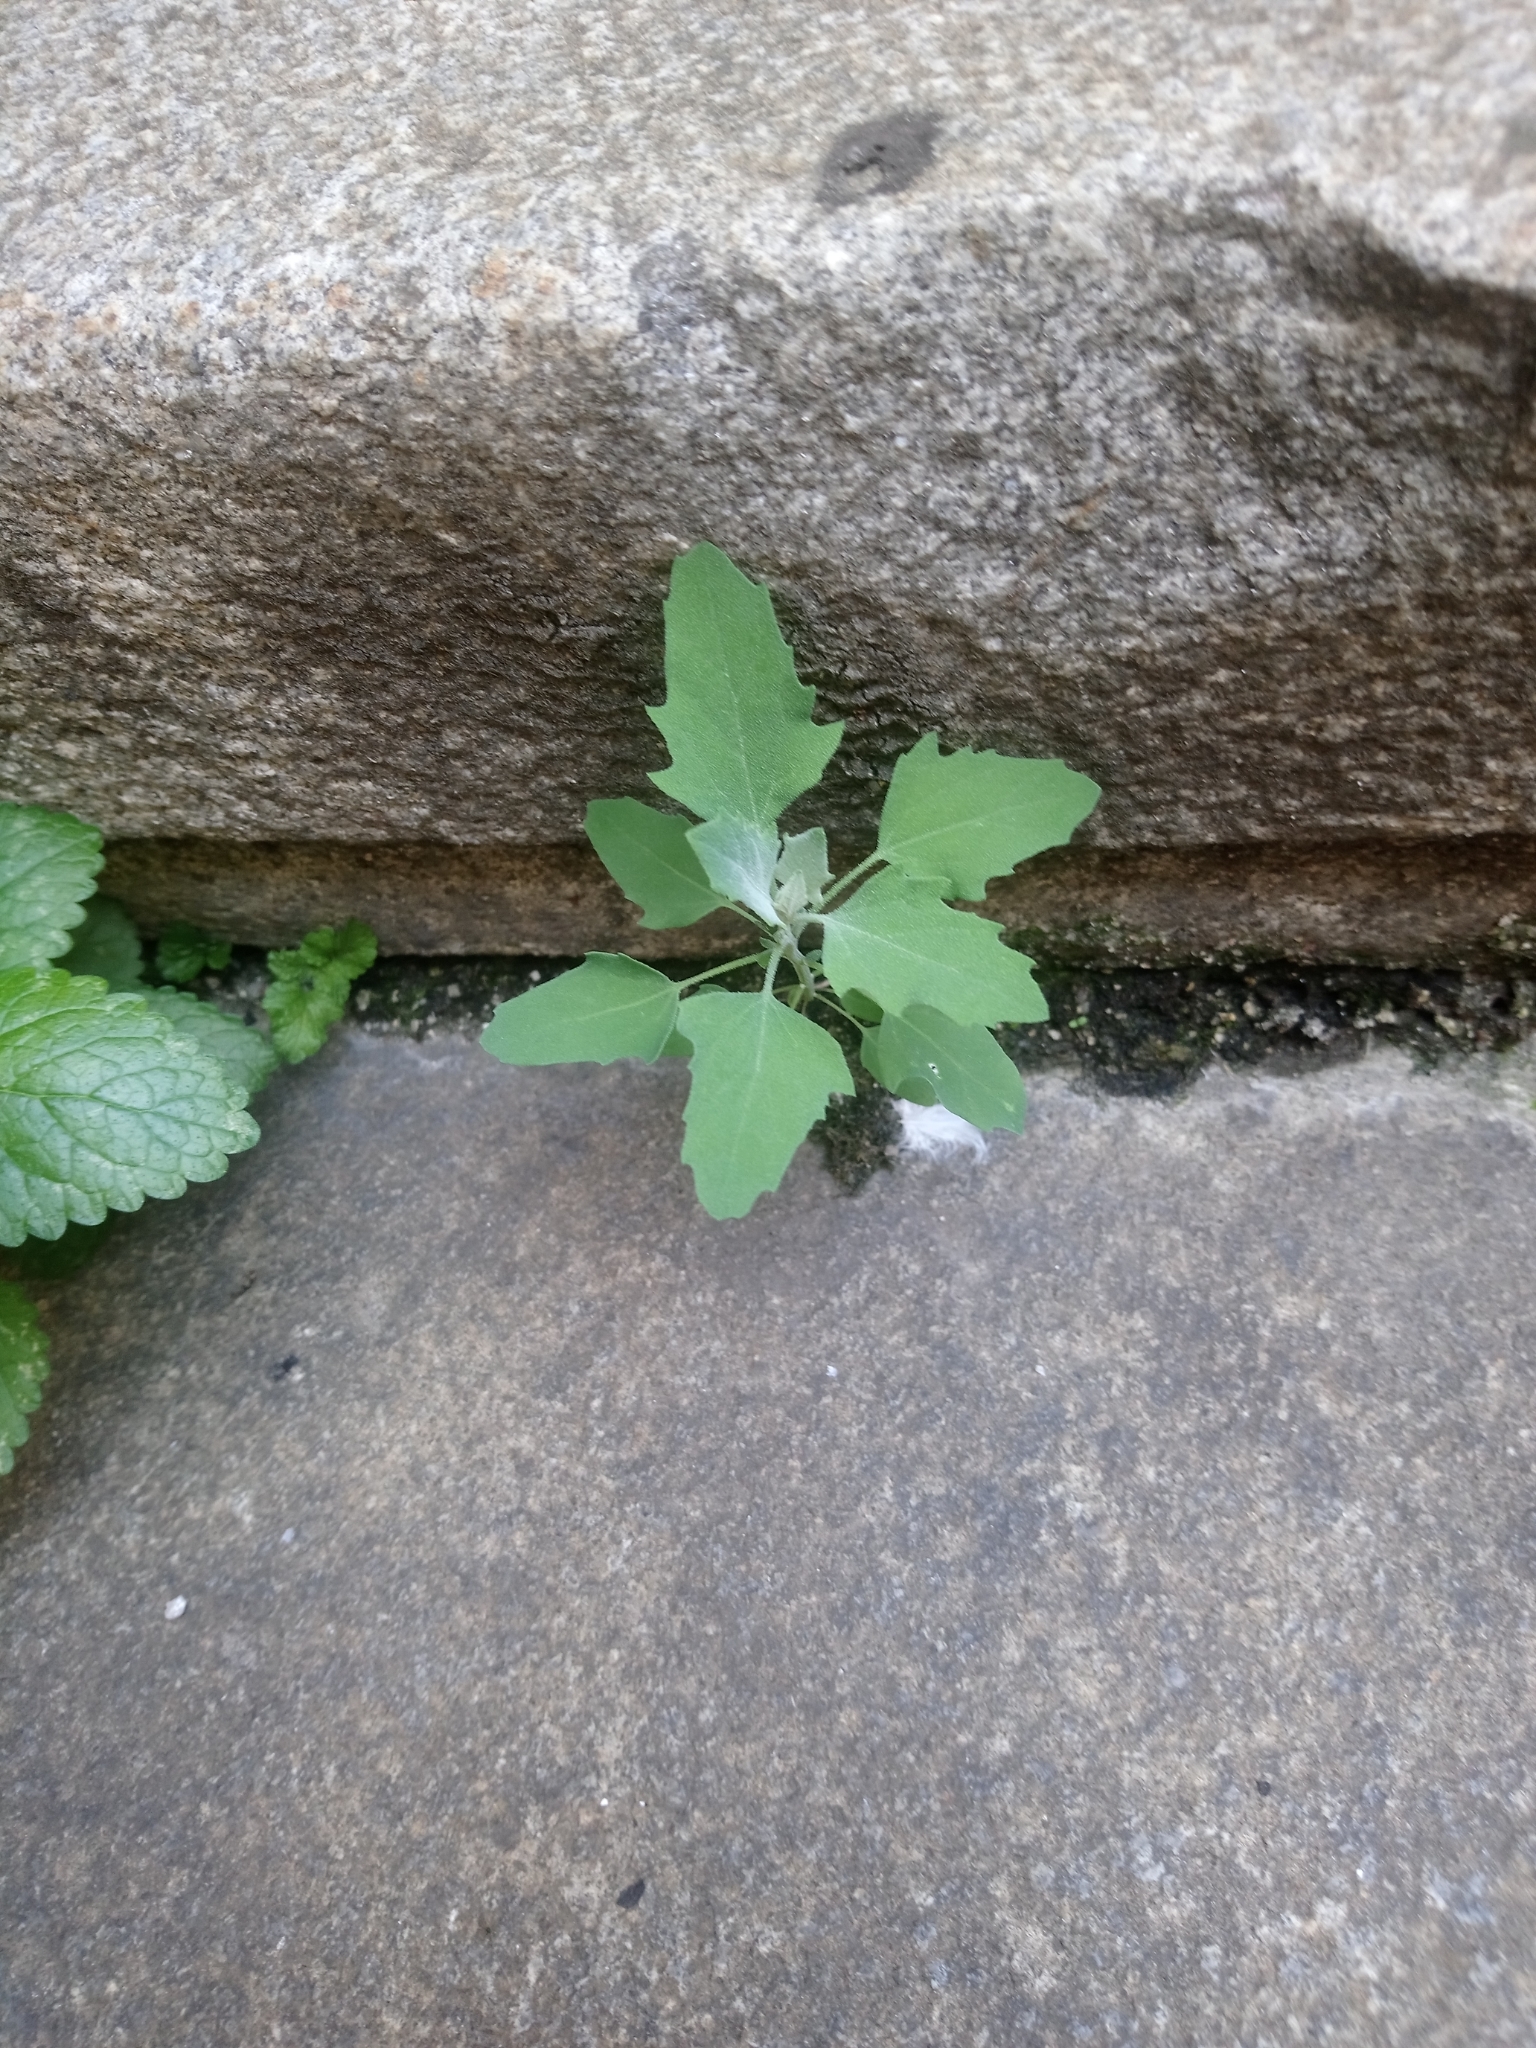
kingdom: Plantae
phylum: Tracheophyta
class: Magnoliopsida
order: Caryophyllales
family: Amaranthaceae
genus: Chenopodium
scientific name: Chenopodium album
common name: Fat-hen
